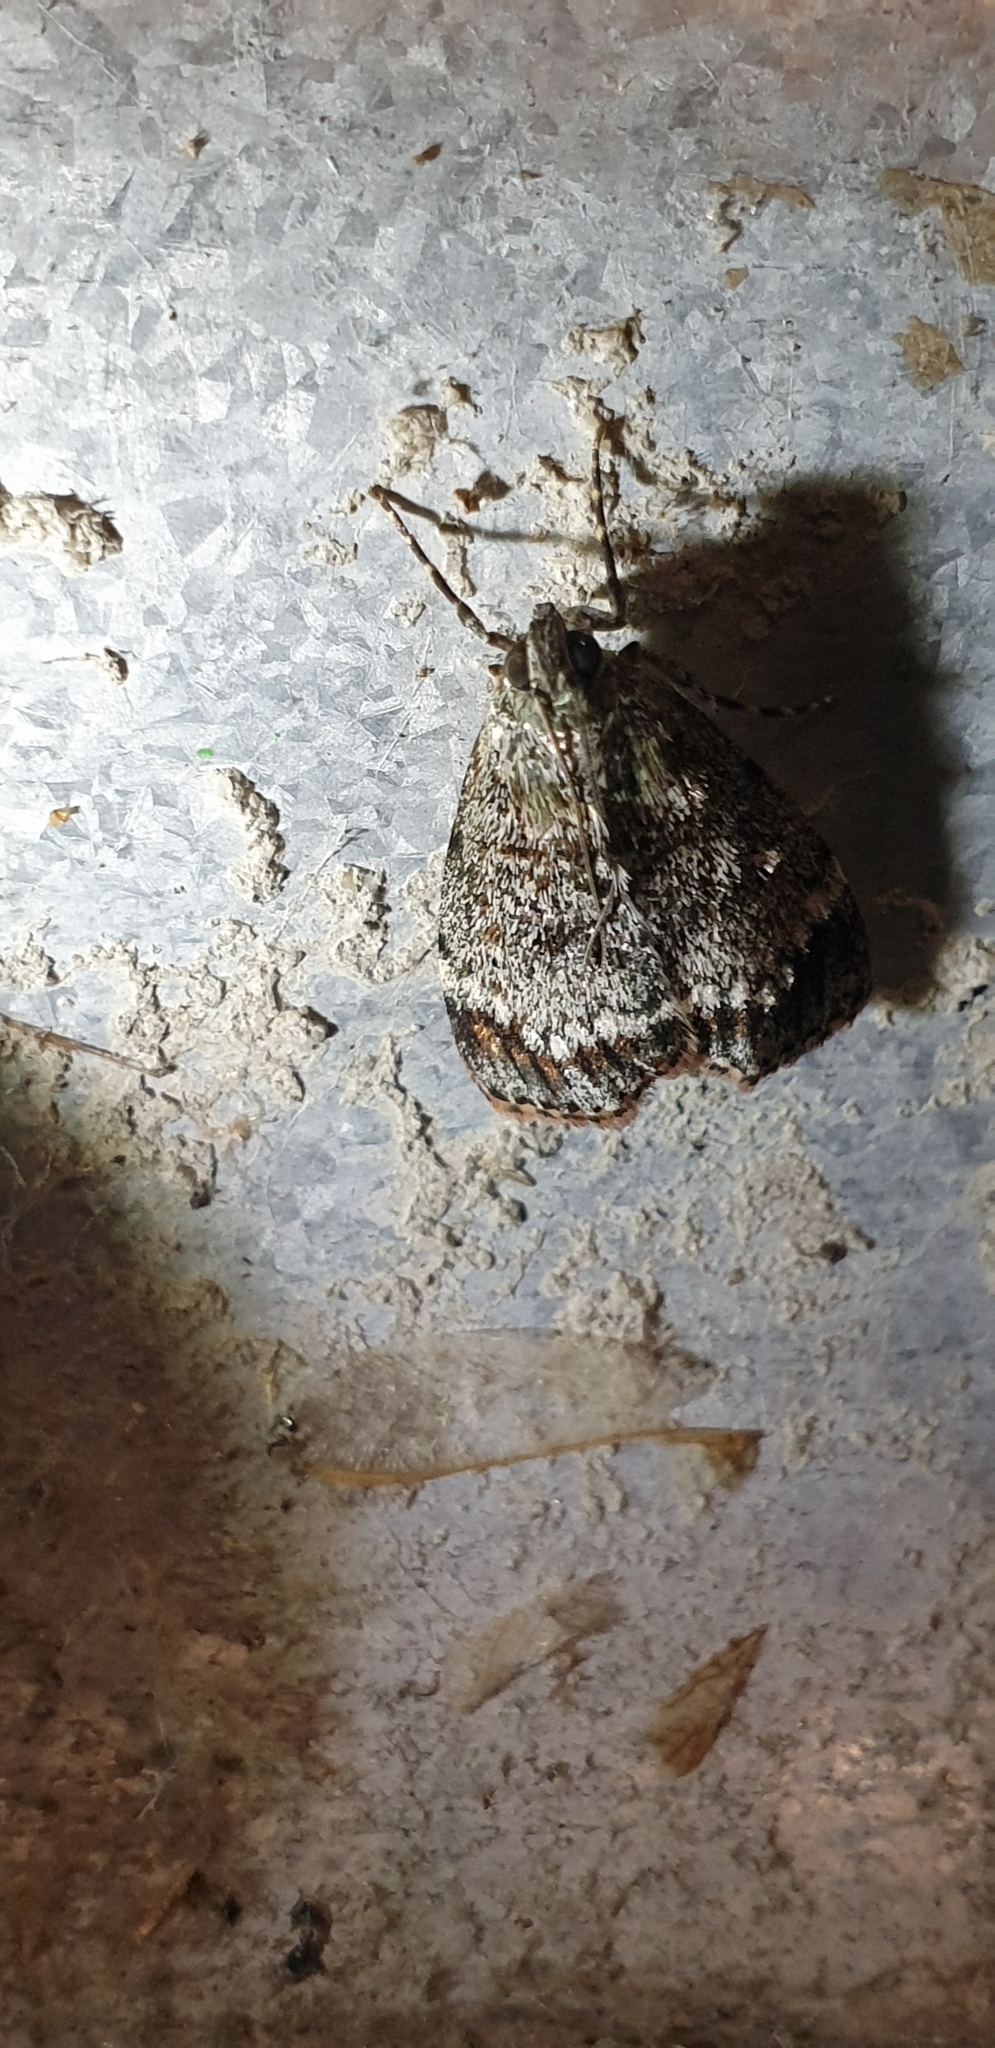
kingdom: Animalia
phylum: Arthropoda
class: Insecta
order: Lepidoptera
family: Pyralidae
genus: Stericta
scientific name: Stericta concisella
